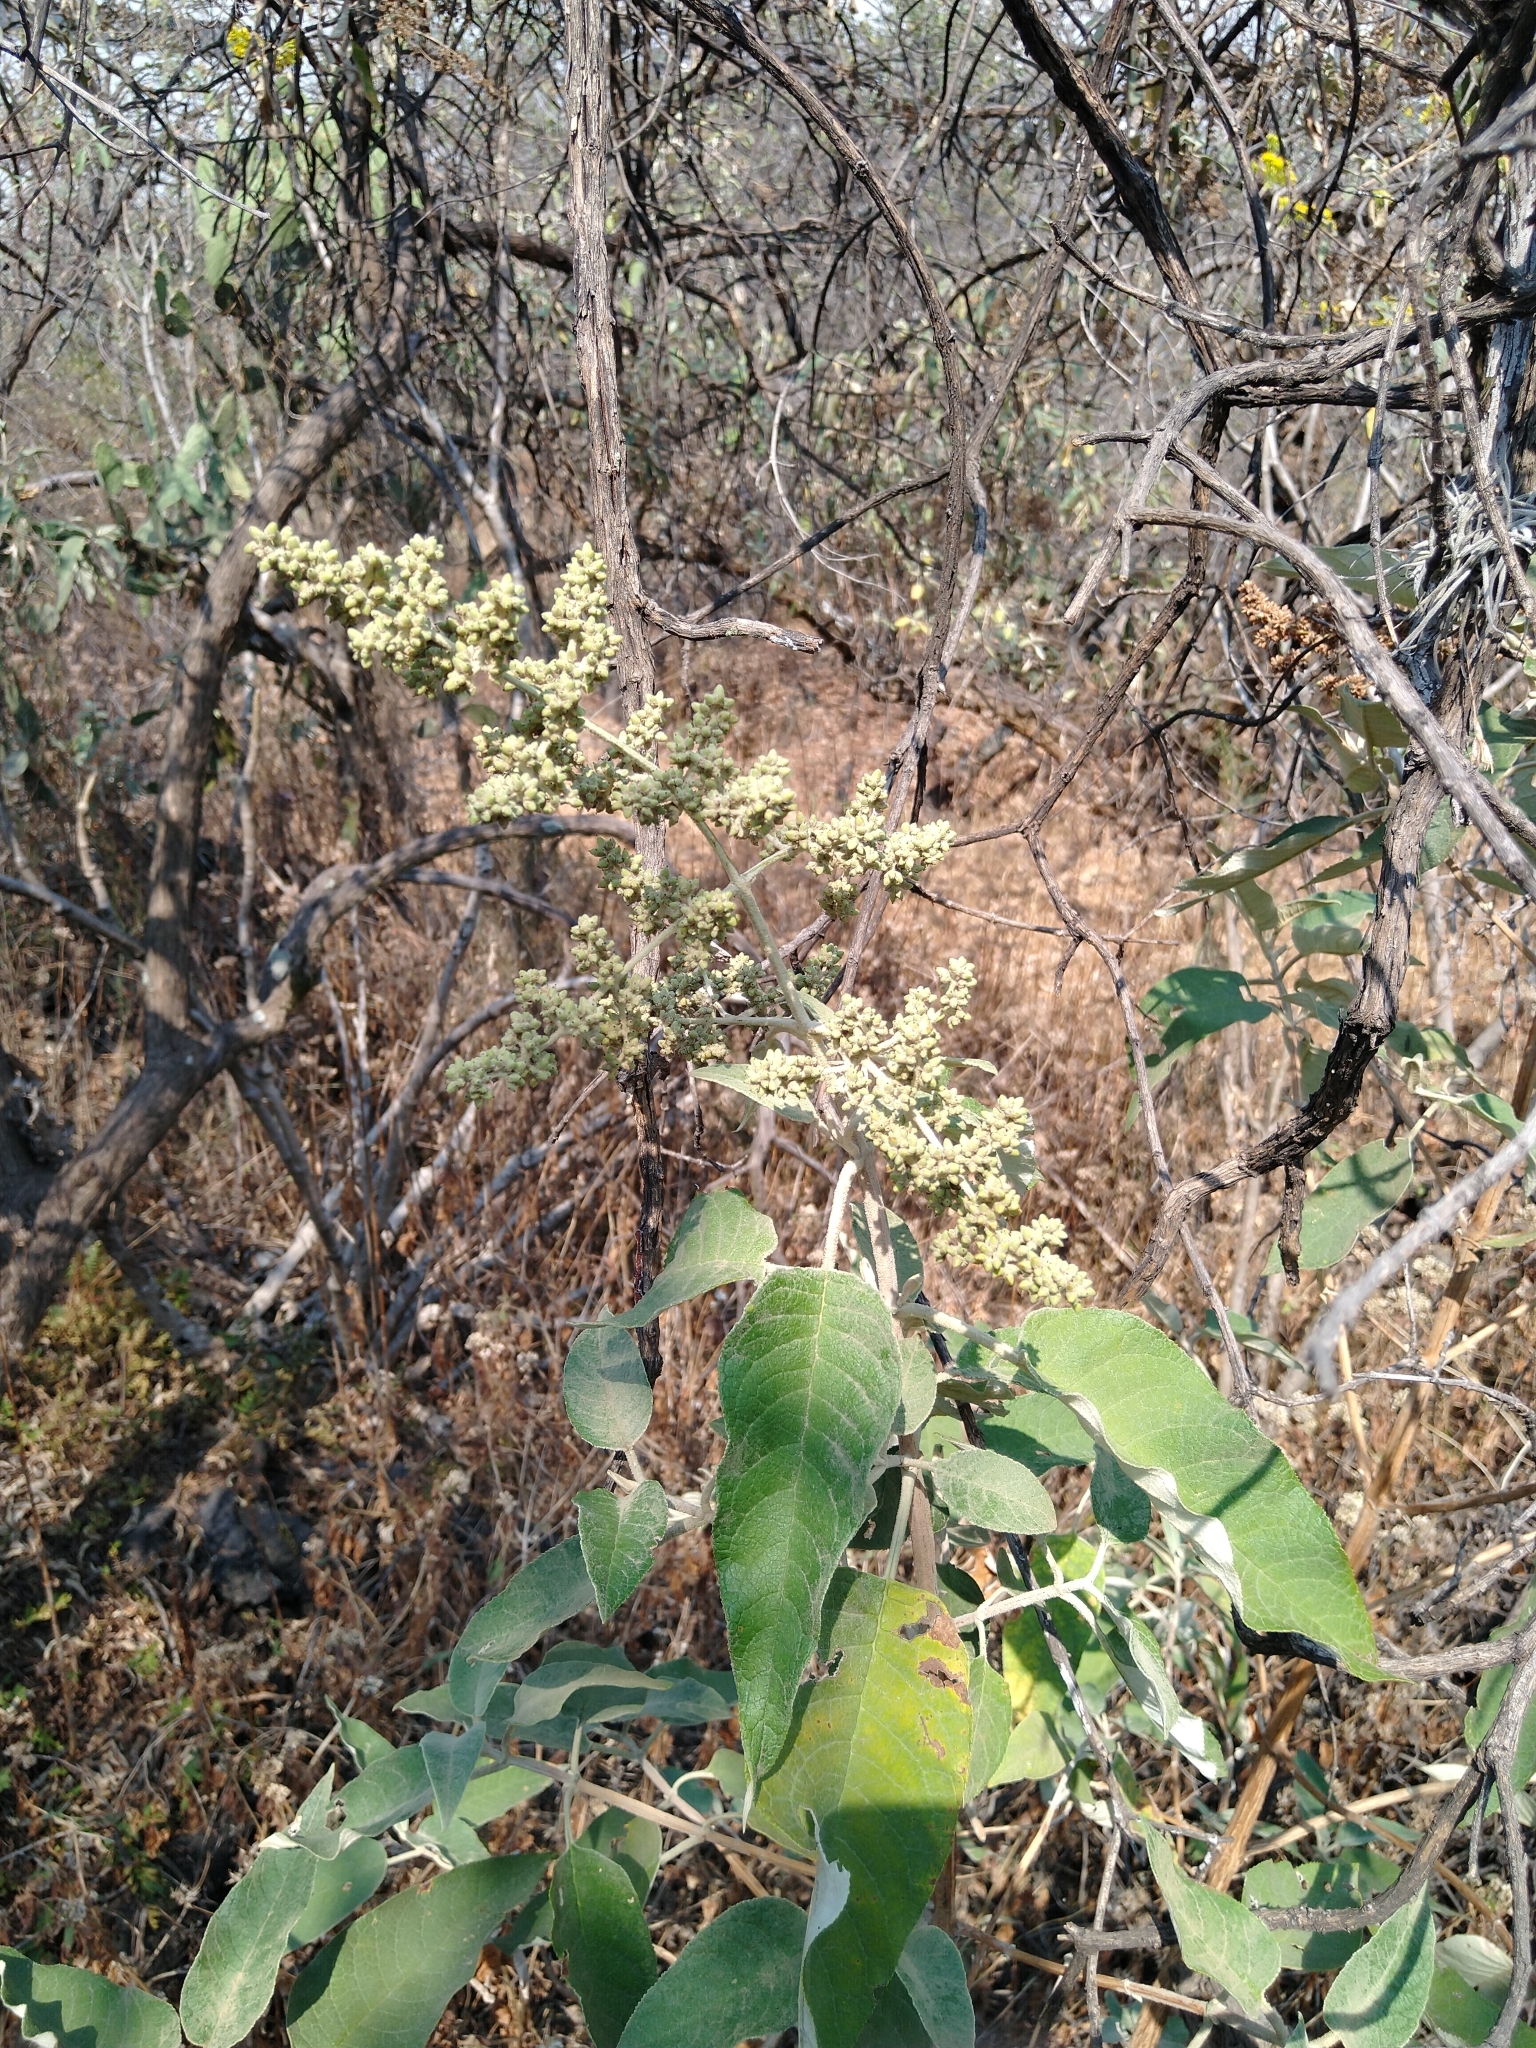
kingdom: Plantae
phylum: Tracheophyta
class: Magnoliopsida
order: Lamiales
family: Scrophulariaceae
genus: Buddleja
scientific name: Buddleja cordata
